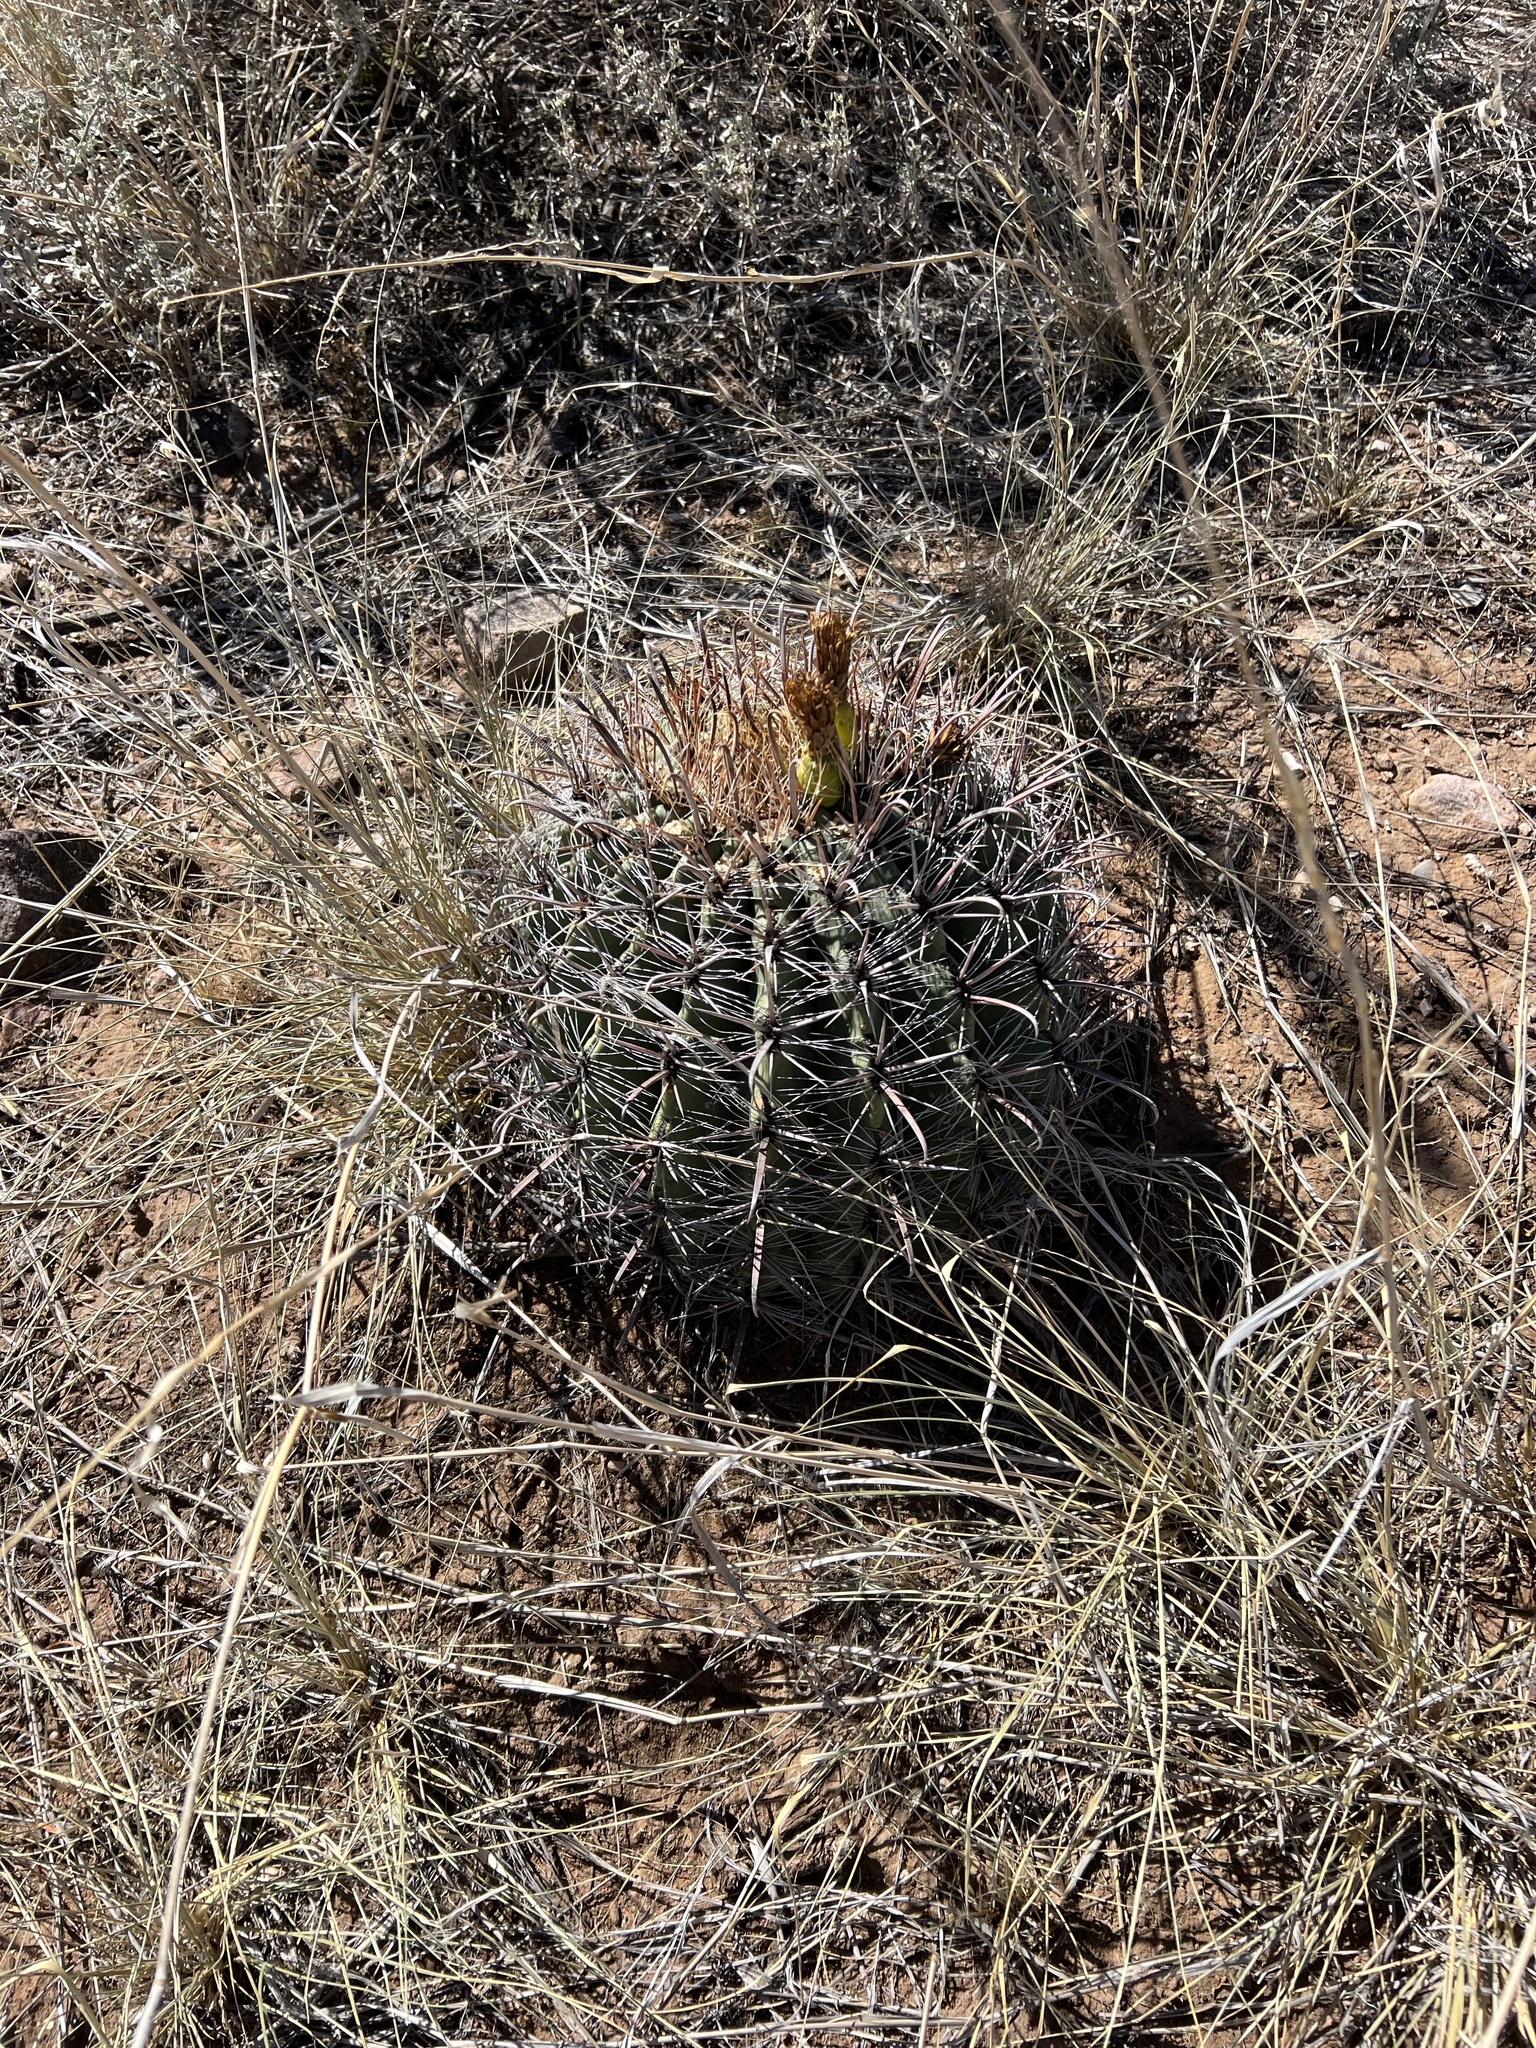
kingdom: Plantae
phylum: Tracheophyta
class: Magnoliopsida
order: Caryophyllales
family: Cactaceae
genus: Ferocactus
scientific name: Ferocactus wislizeni
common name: Candy barrel cactus
